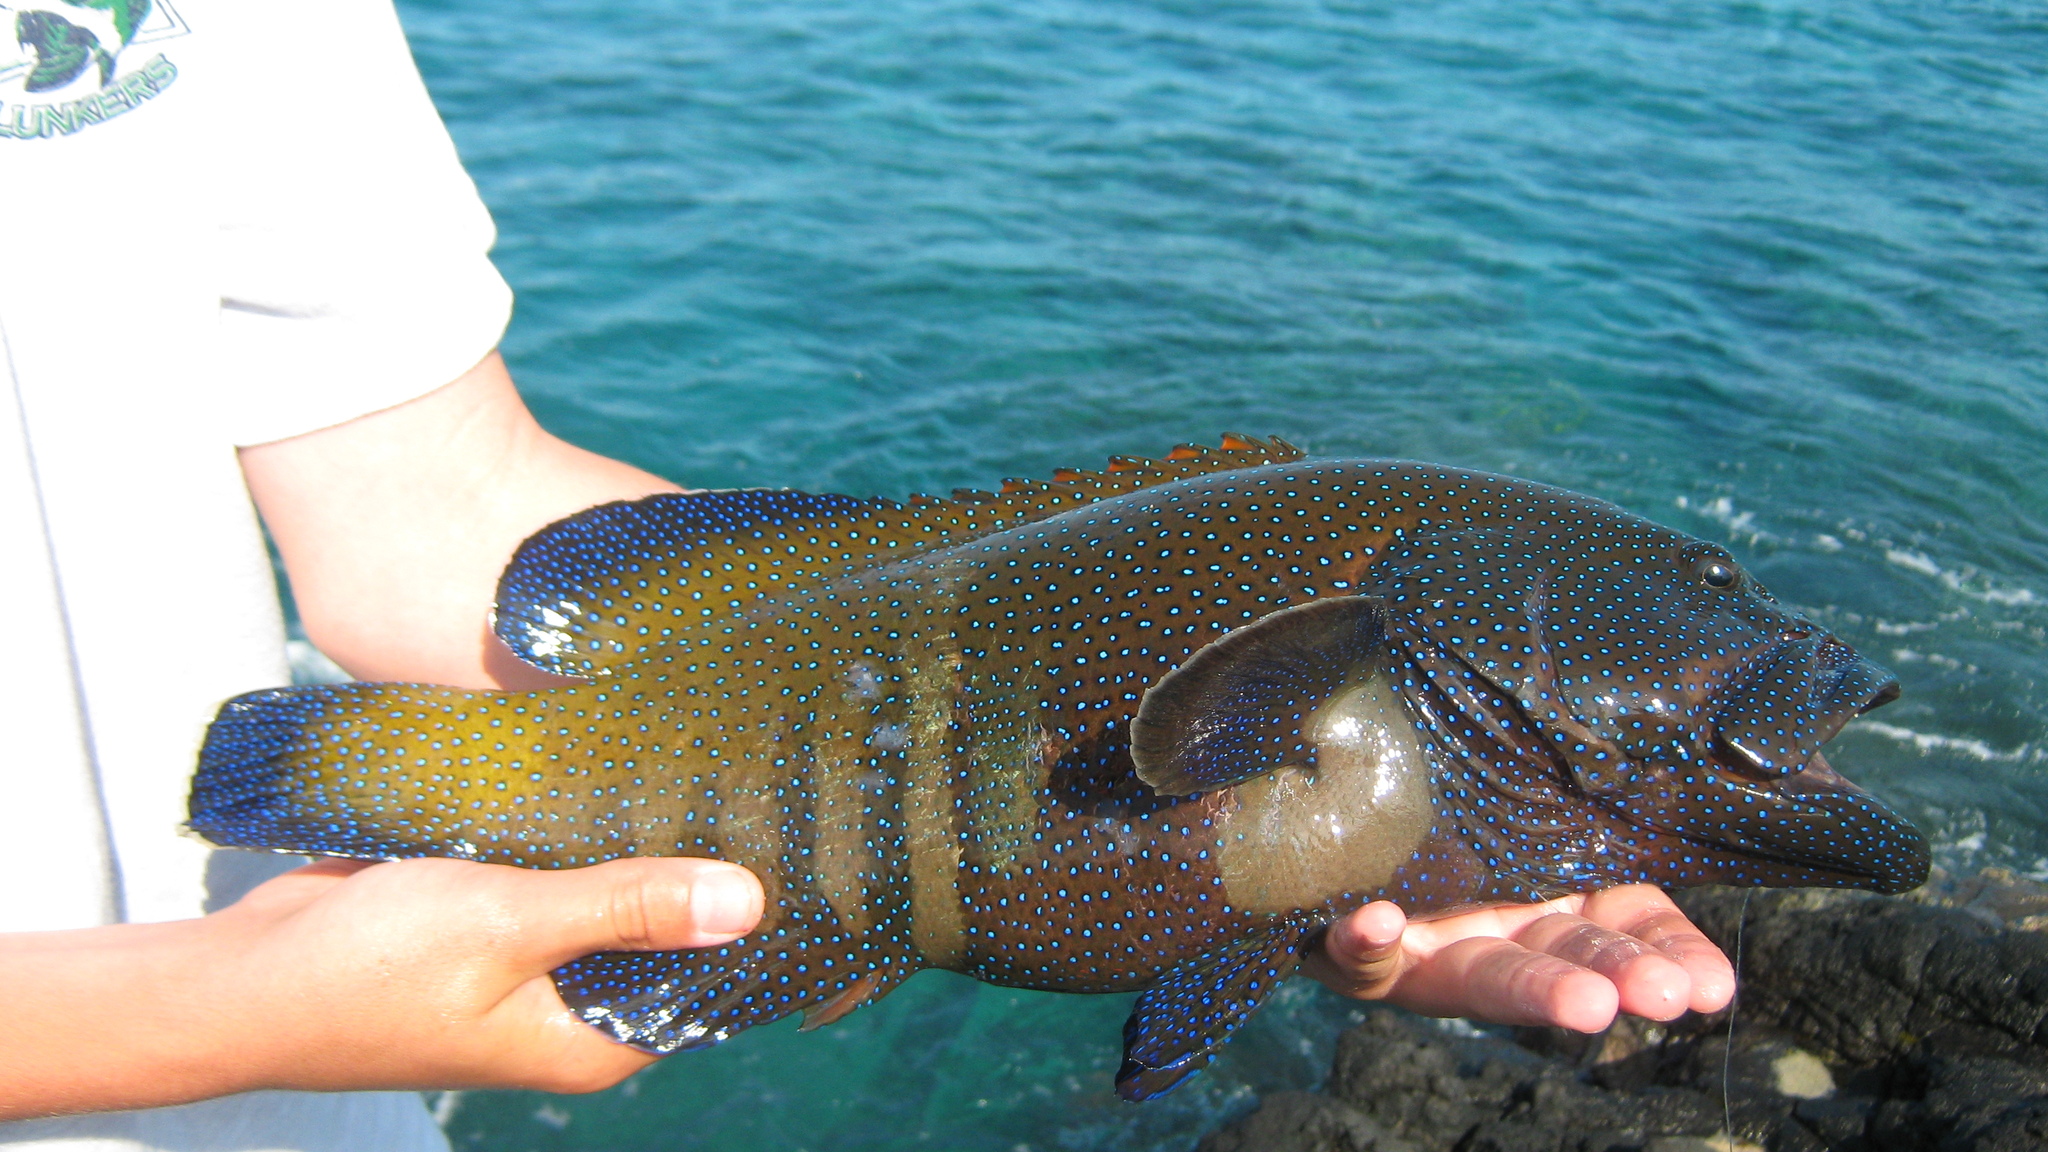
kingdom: Animalia
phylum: Chordata
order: Perciformes
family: Serranidae
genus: Cephalopholis
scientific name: Cephalopholis argus
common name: Peacock grouper
